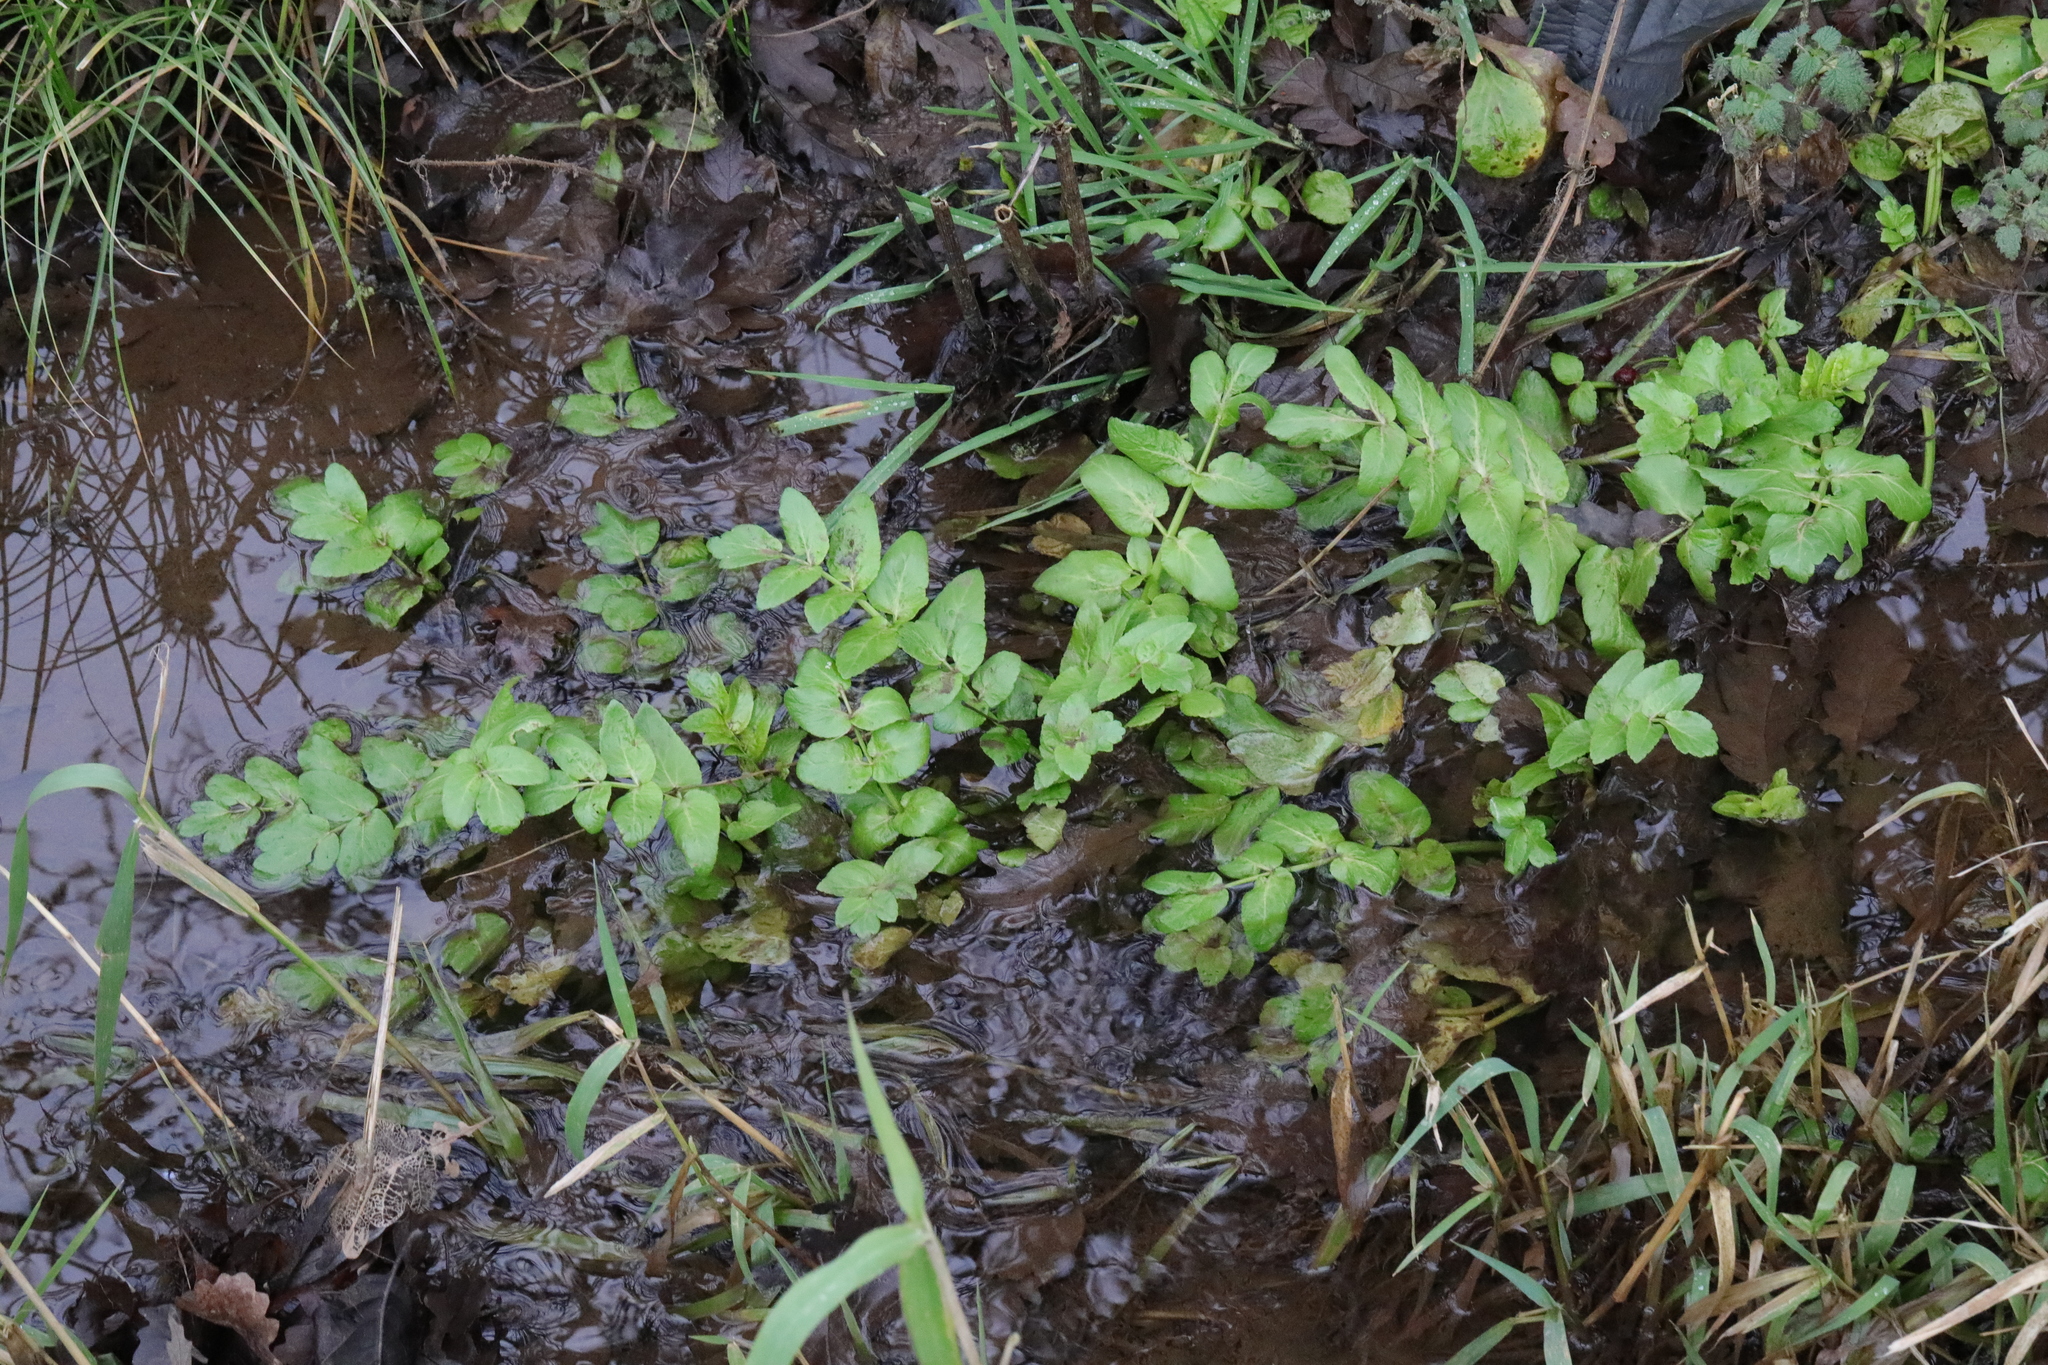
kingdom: Plantae
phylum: Tracheophyta
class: Magnoliopsida
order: Apiales
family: Apiaceae
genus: Helosciadium
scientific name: Helosciadium nodiflorum
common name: Fool's-watercress
